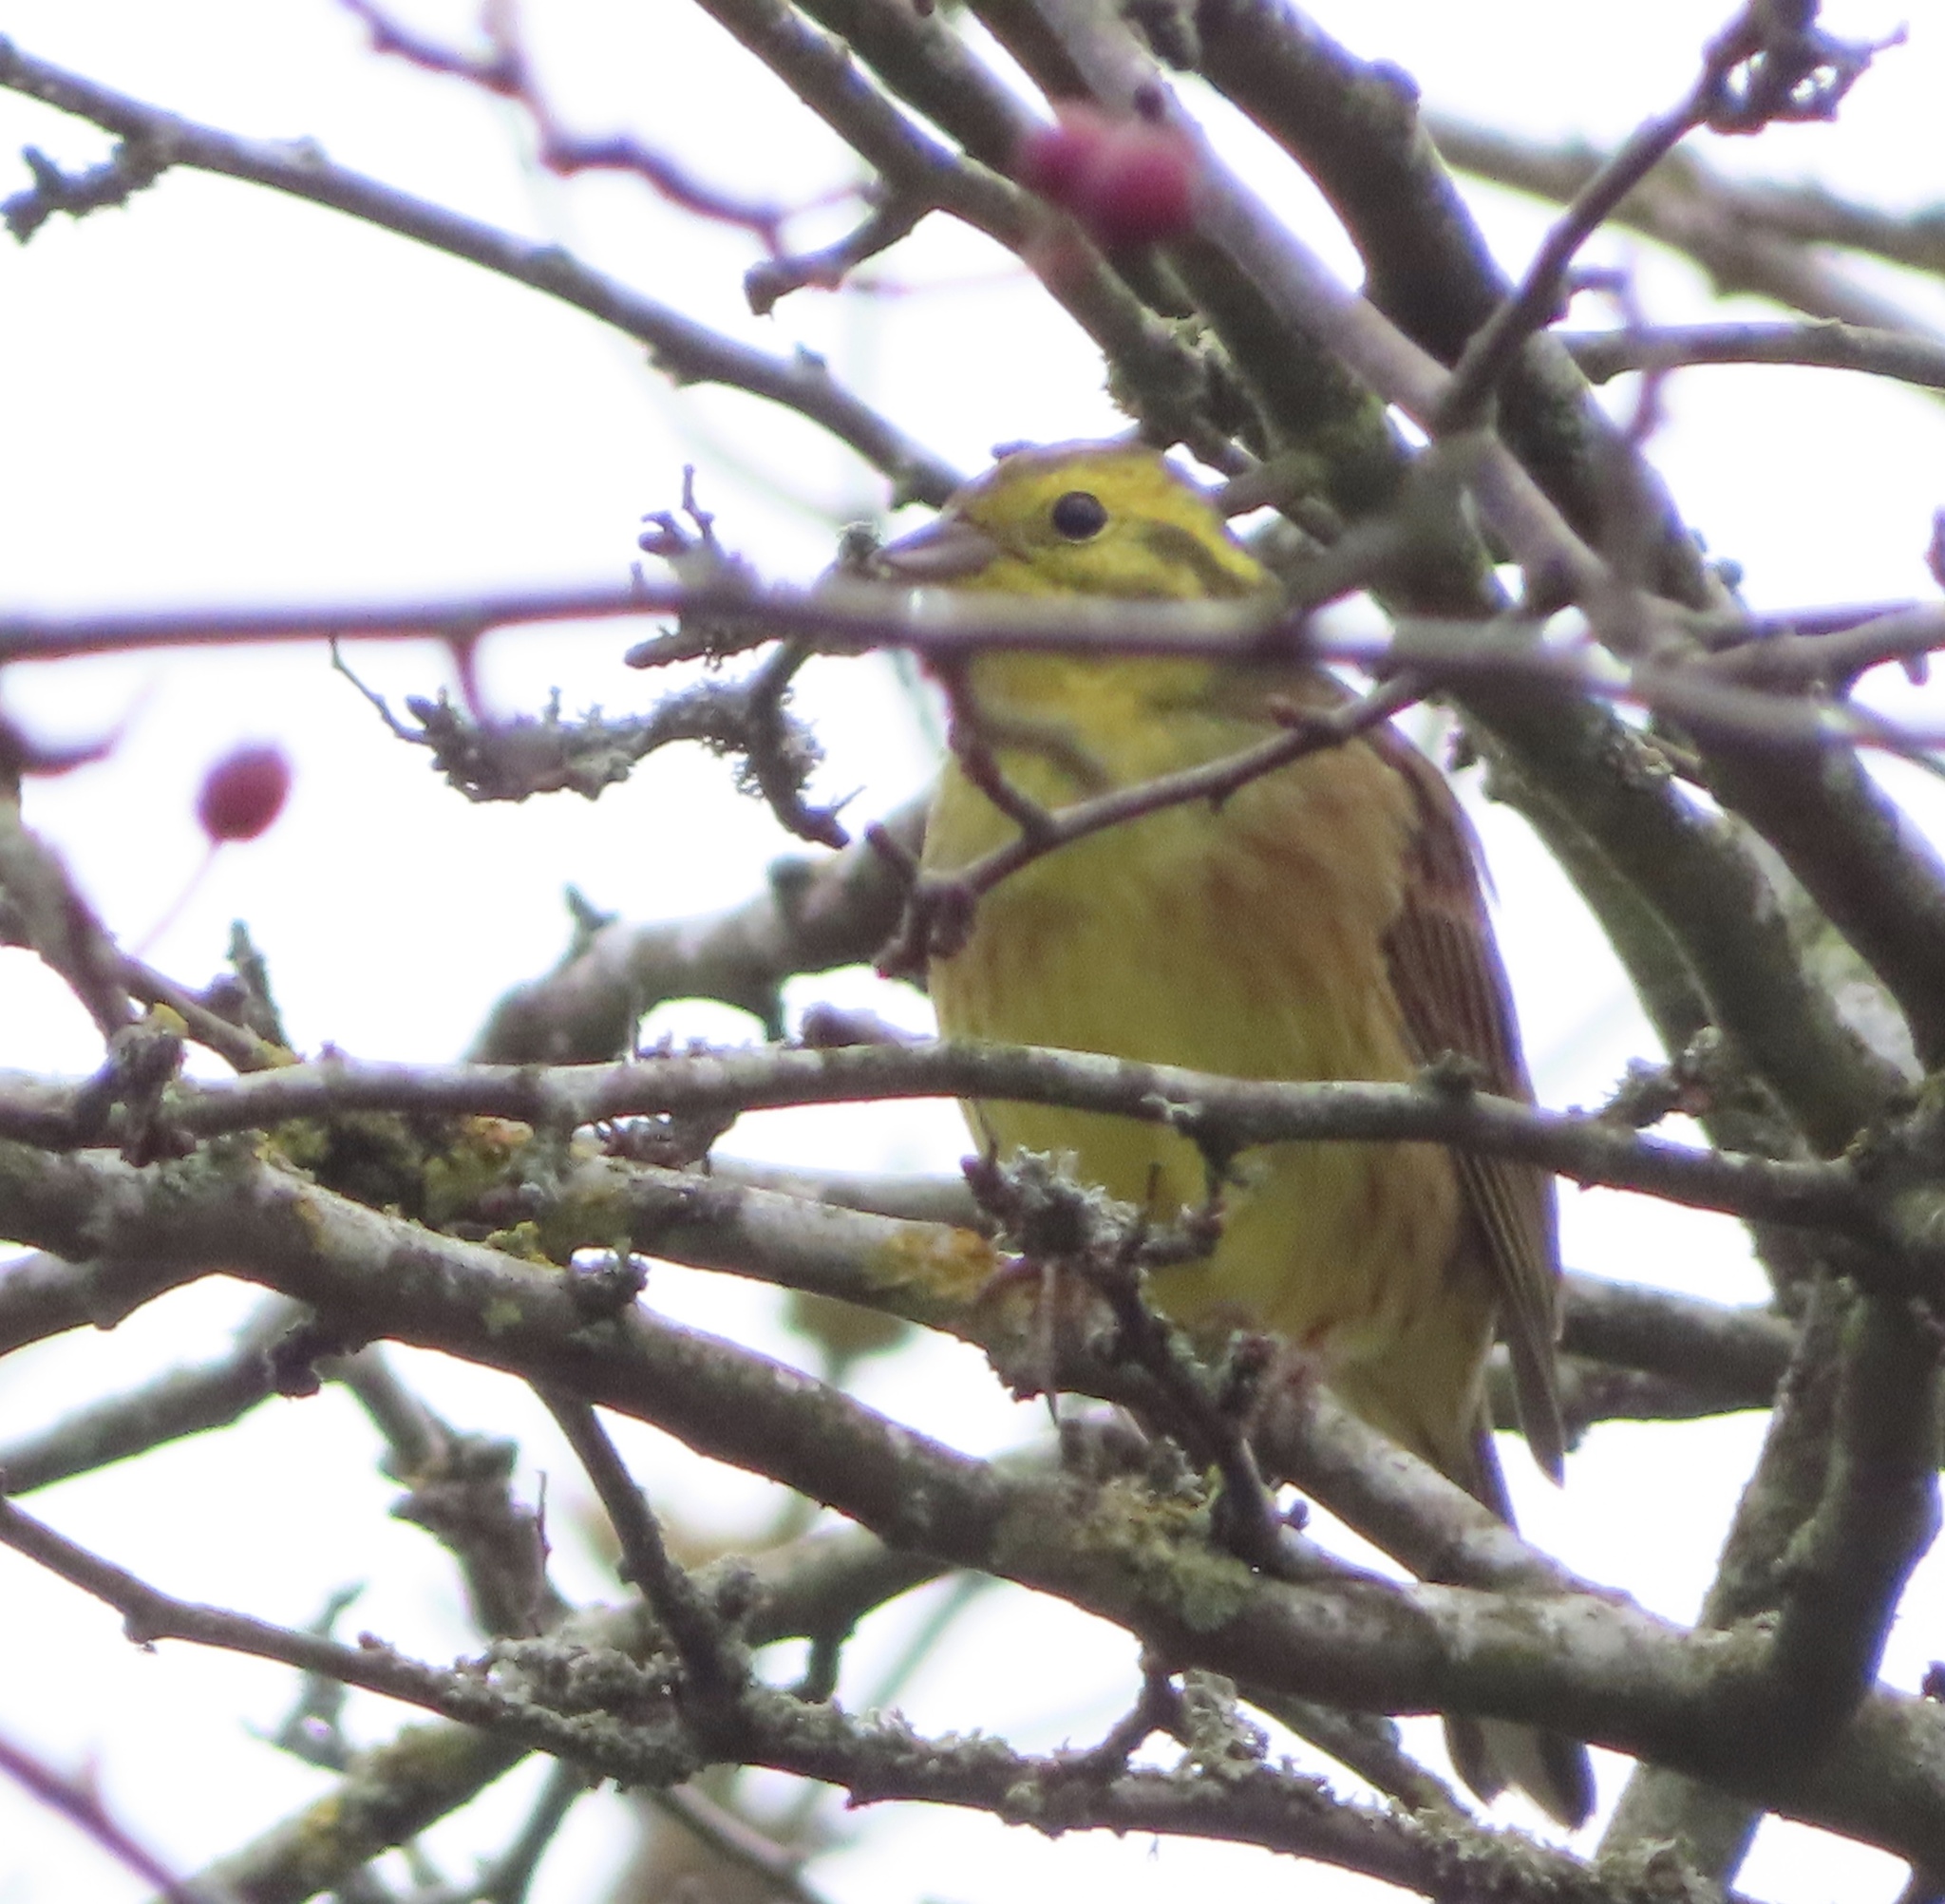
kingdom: Animalia
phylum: Chordata
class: Aves
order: Passeriformes
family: Emberizidae
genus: Emberiza
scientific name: Emberiza citrinella
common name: Yellowhammer
